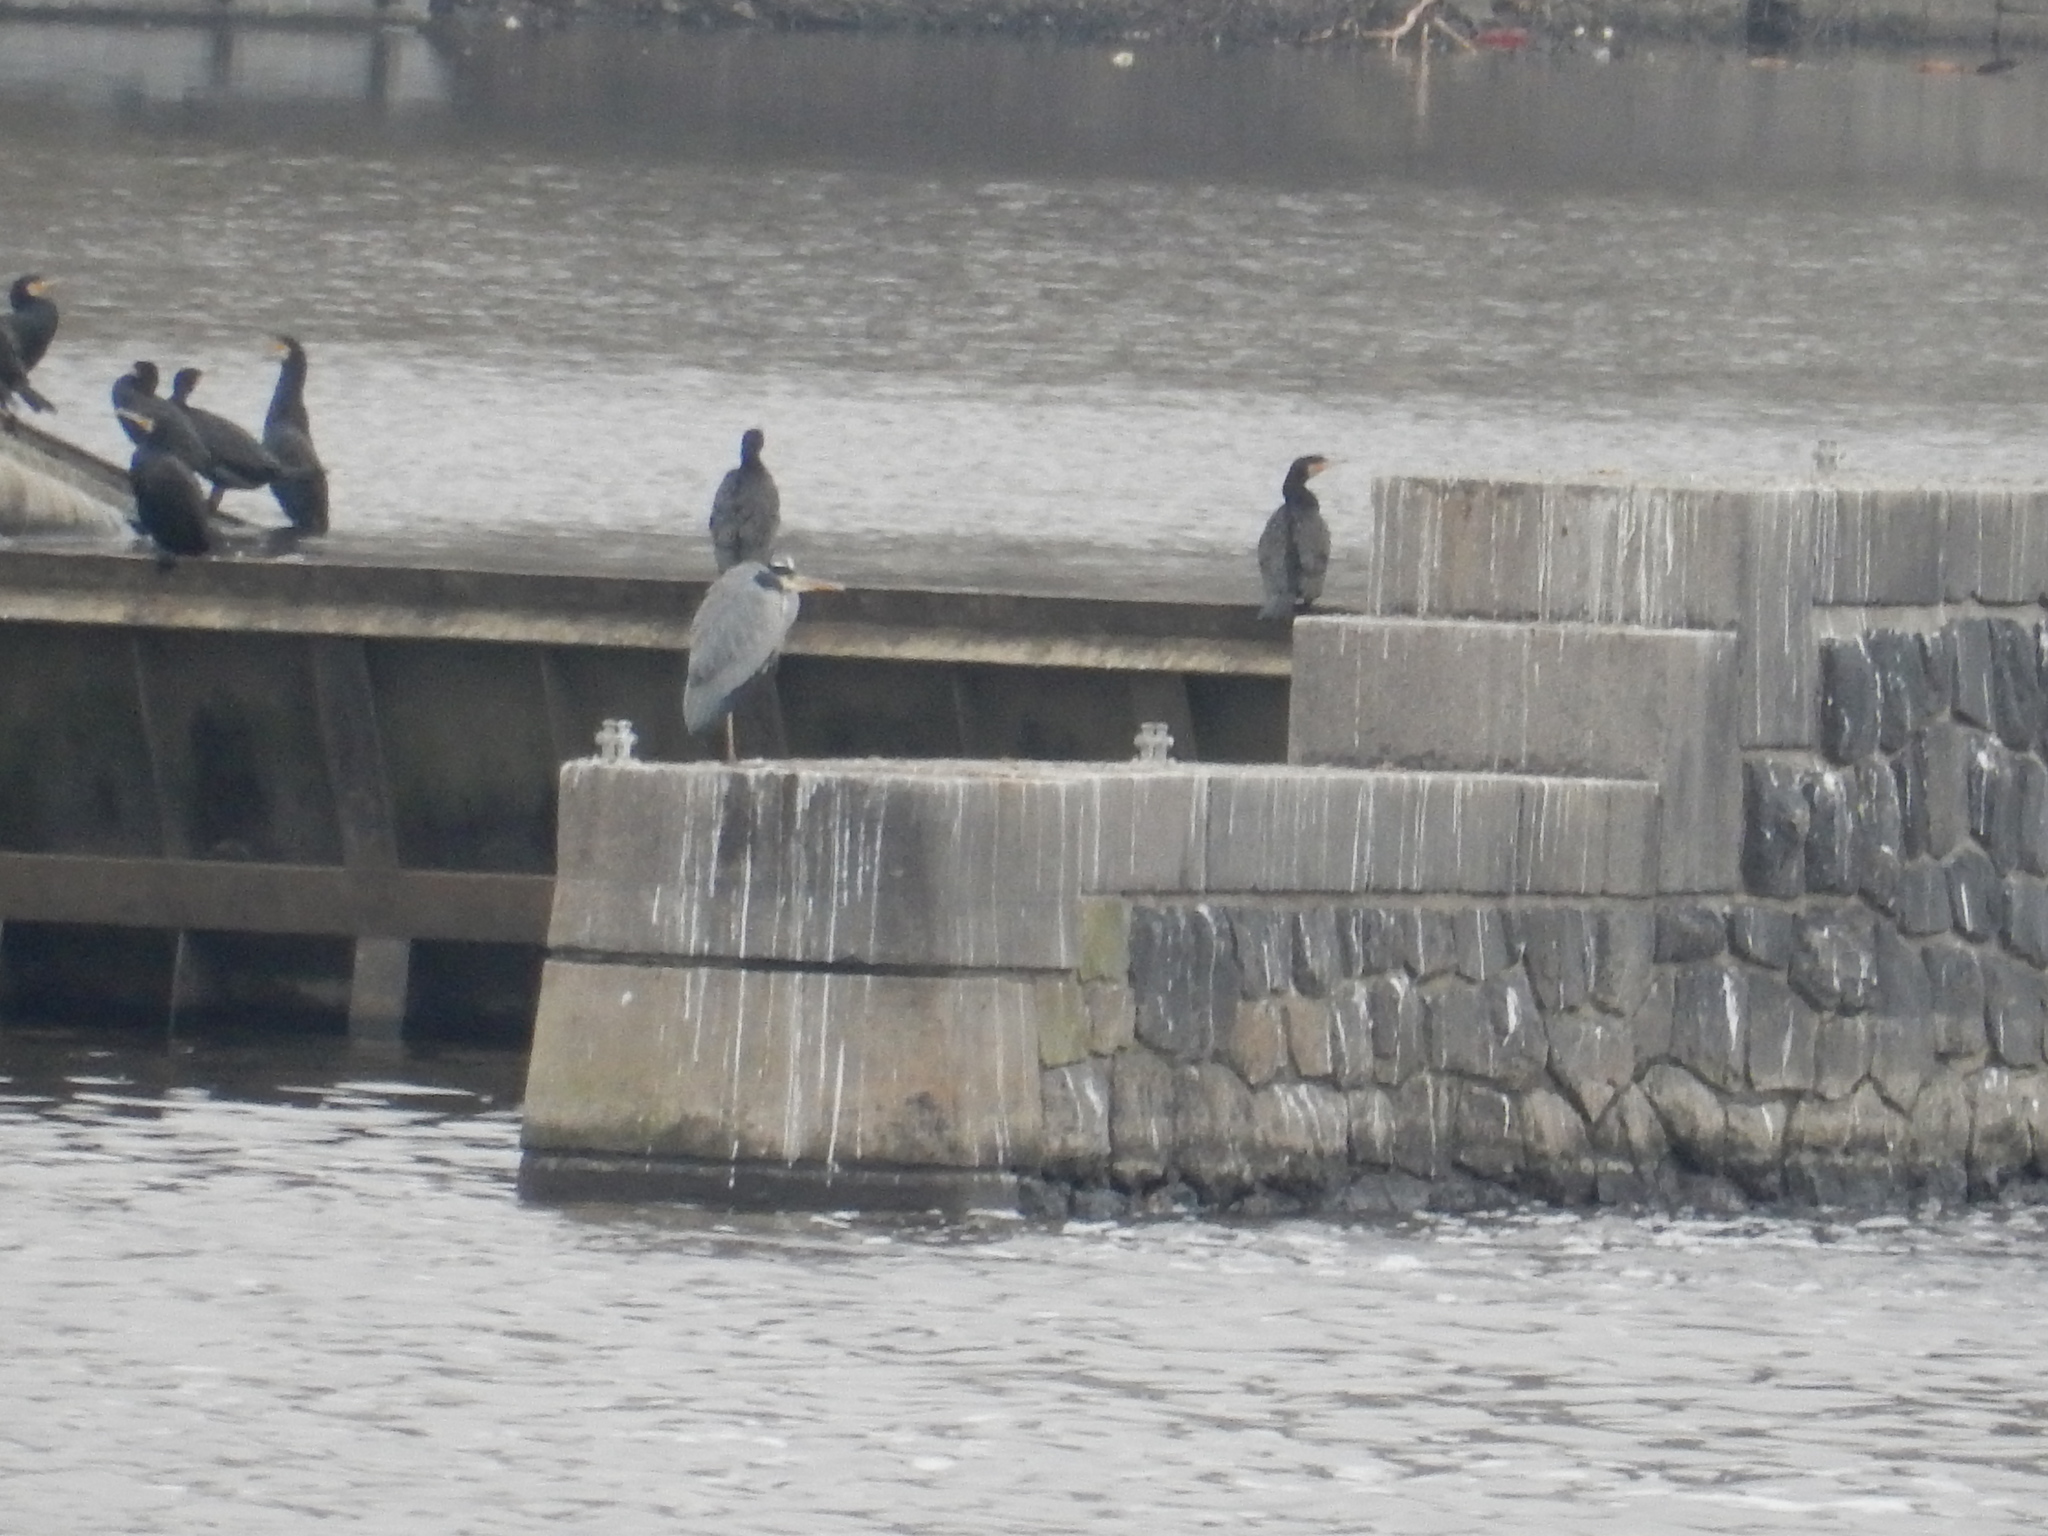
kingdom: Animalia
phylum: Chordata
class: Aves
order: Pelecaniformes
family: Ardeidae
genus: Ardea
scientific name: Ardea cinerea
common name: Grey heron
